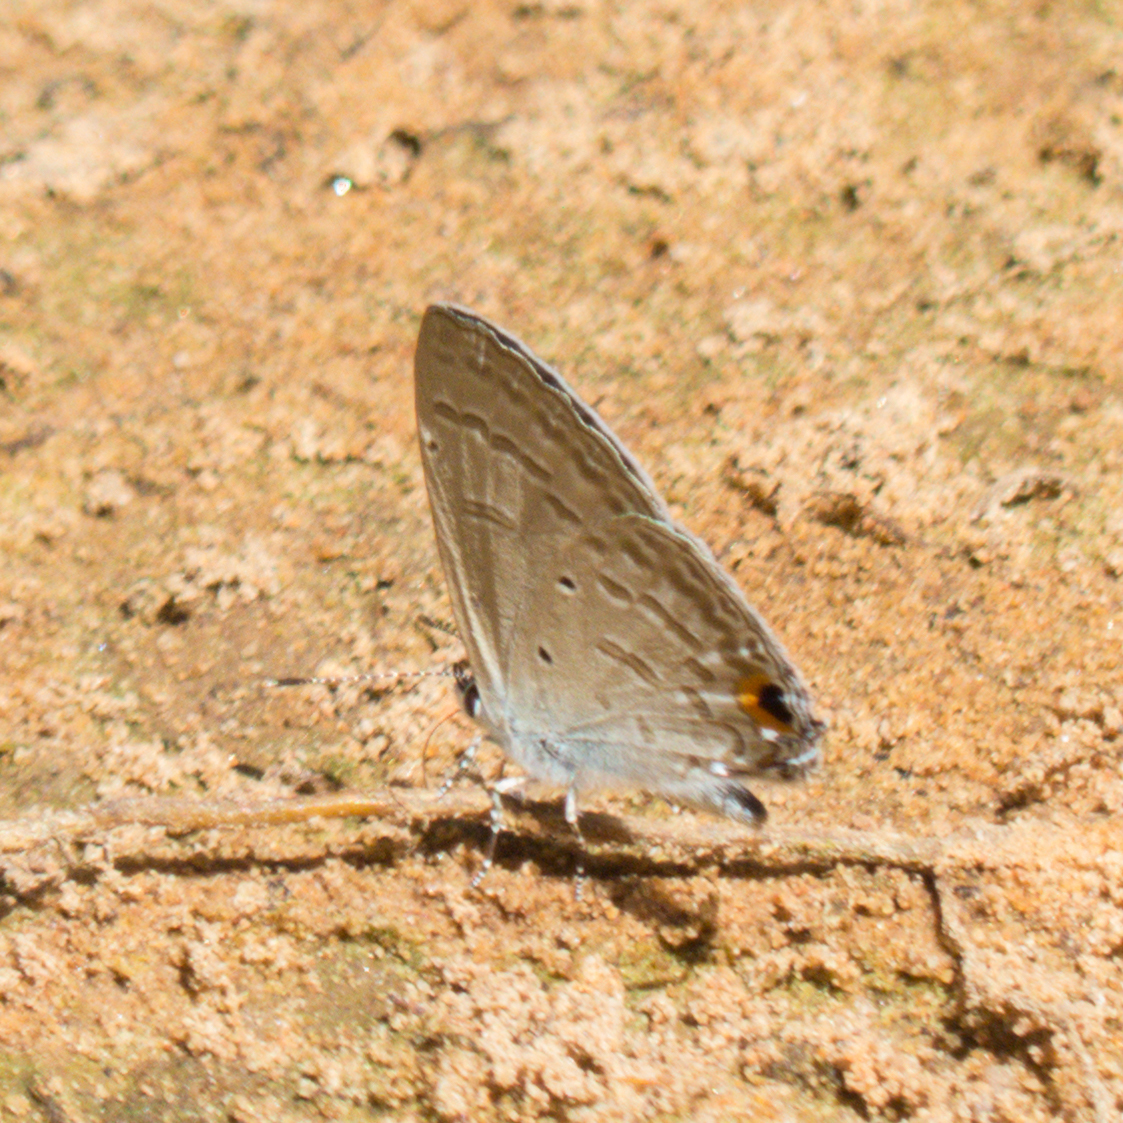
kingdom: Animalia
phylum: Arthropoda
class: Insecta
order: Lepidoptera
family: Lycaenidae
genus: Catochrysops
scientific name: Catochrysops panormus
